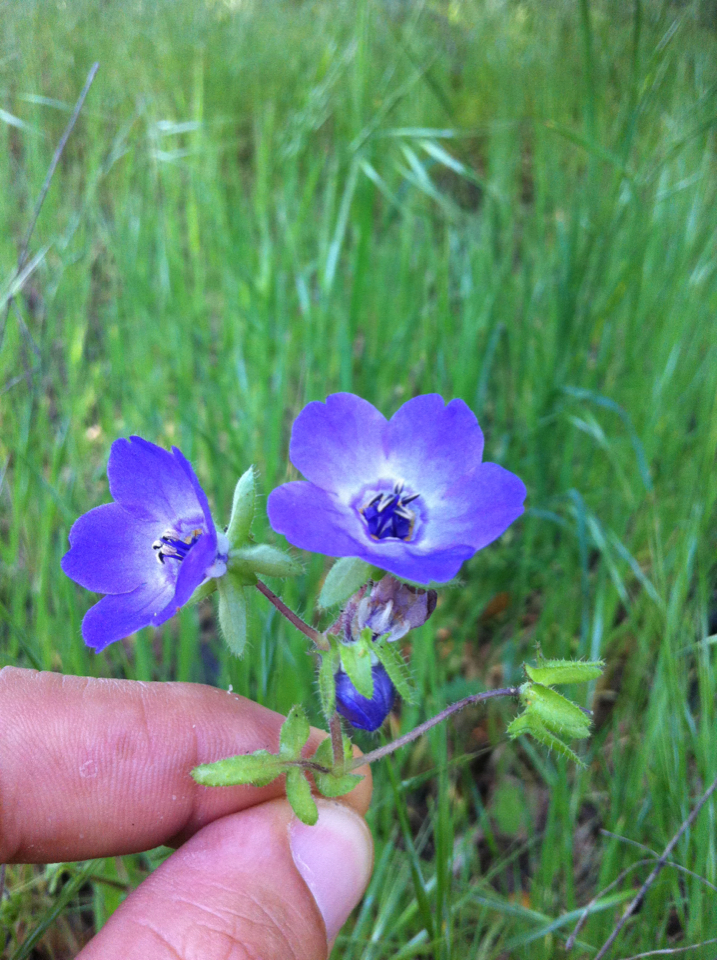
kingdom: Plantae
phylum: Tracheophyta
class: Magnoliopsida
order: Boraginales
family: Hydrophyllaceae
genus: Pholistoma
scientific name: Pholistoma auritum
